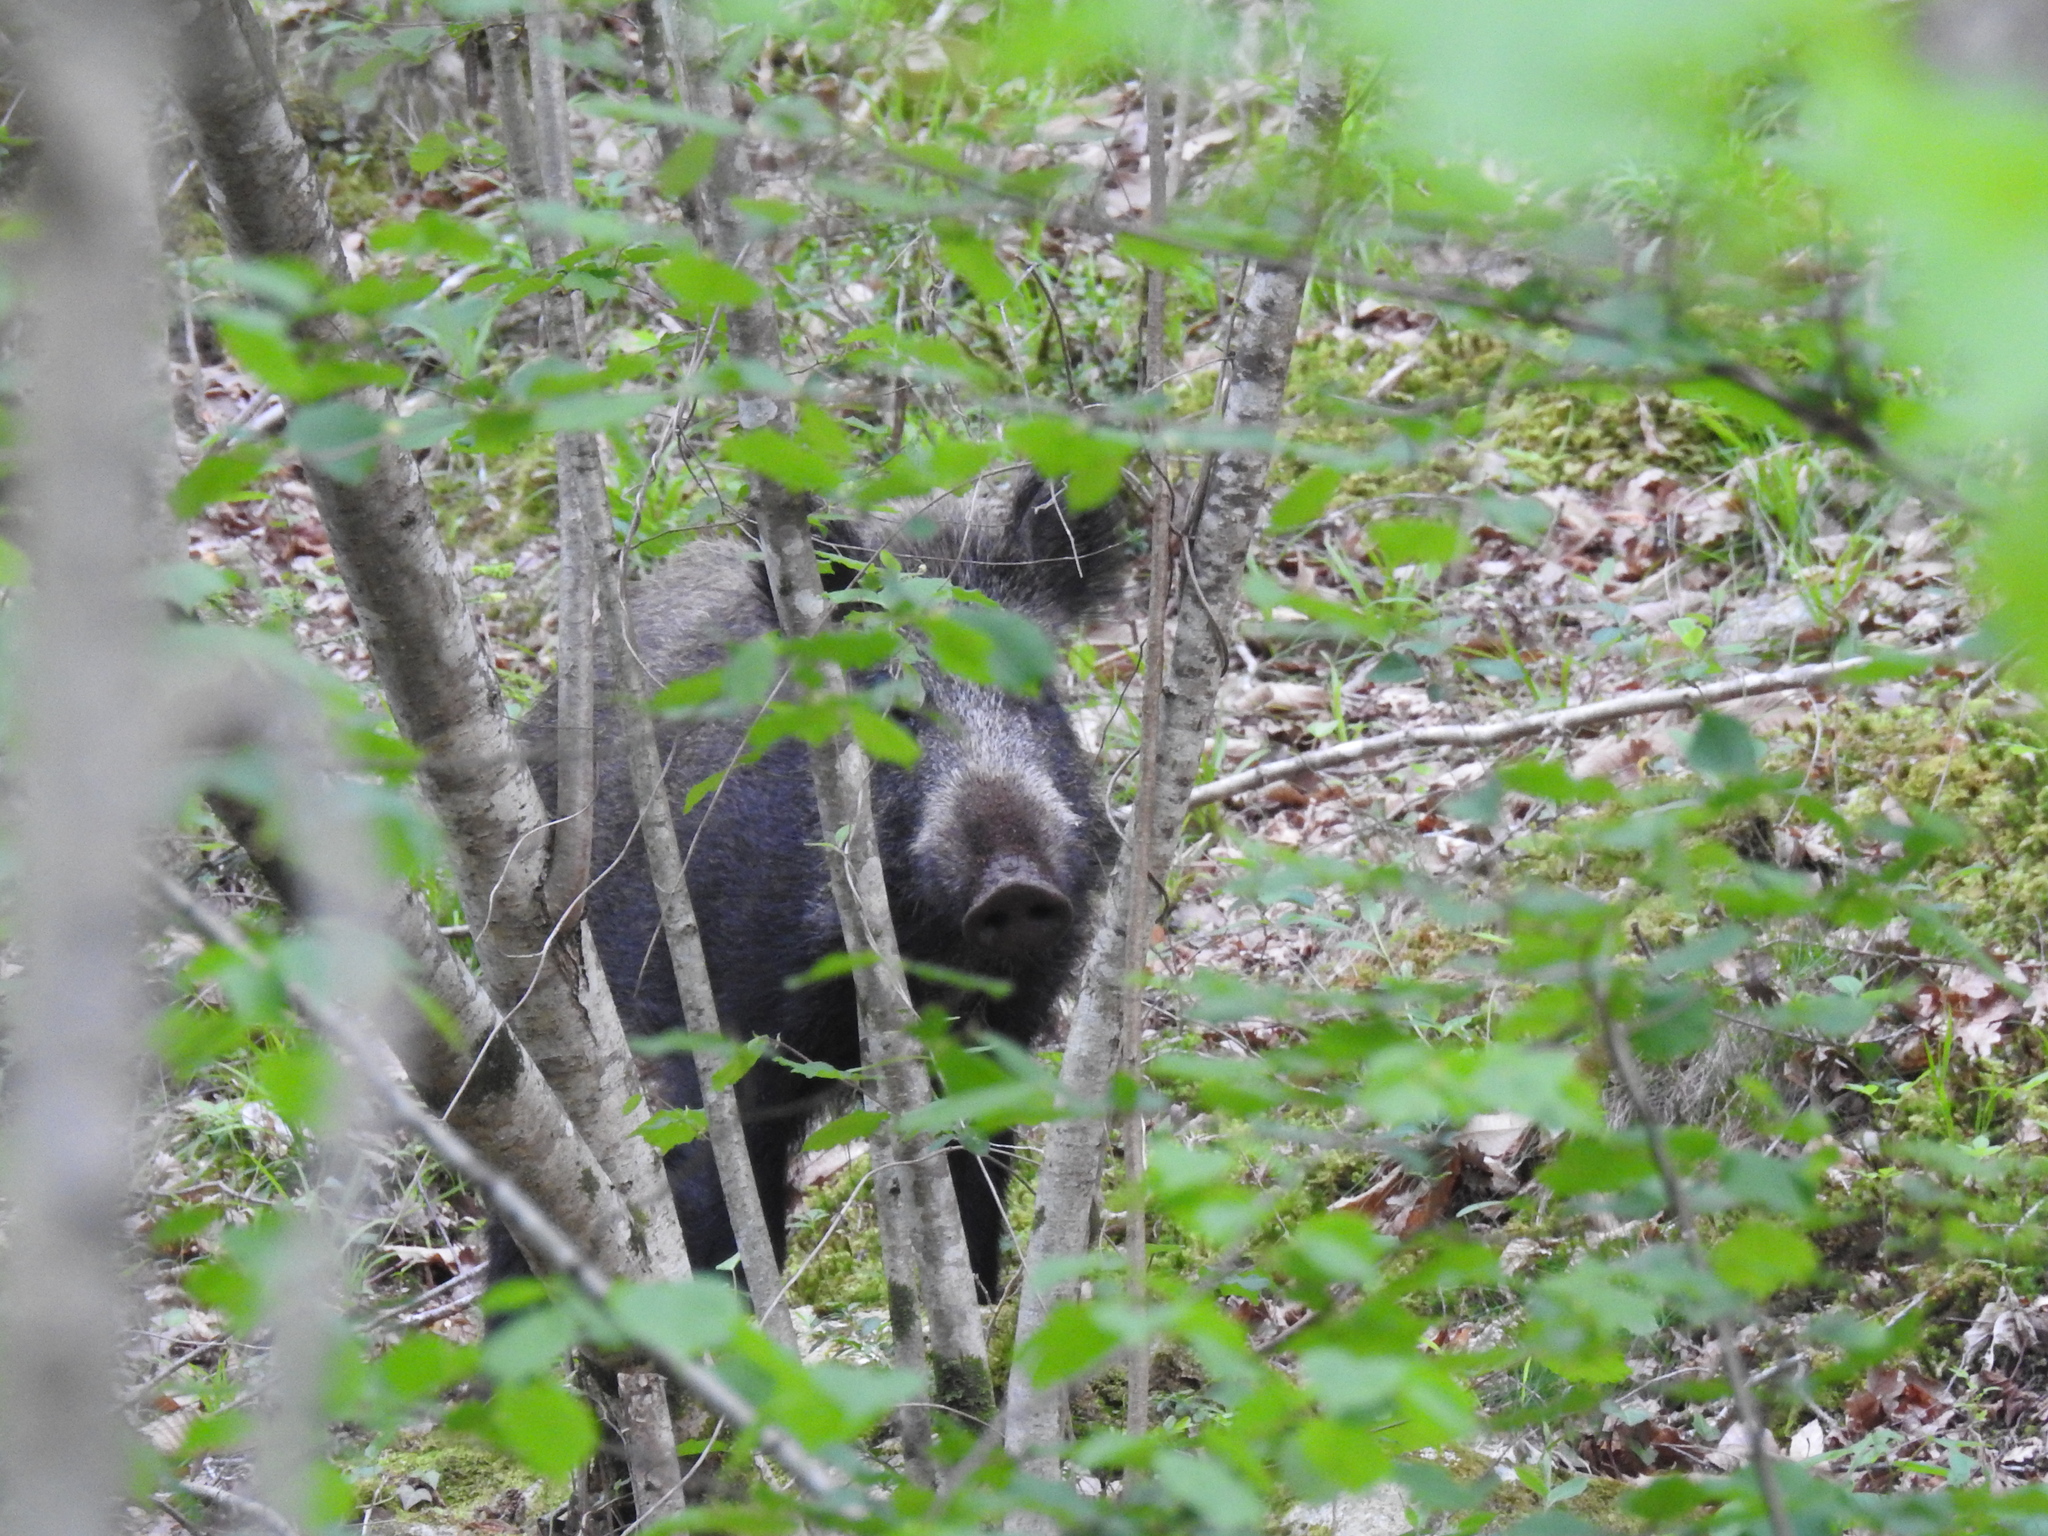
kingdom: Animalia
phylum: Chordata
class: Mammalia
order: Artiodactyla
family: Suidae
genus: Sus
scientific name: Sus scrofa
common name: Wild boar
